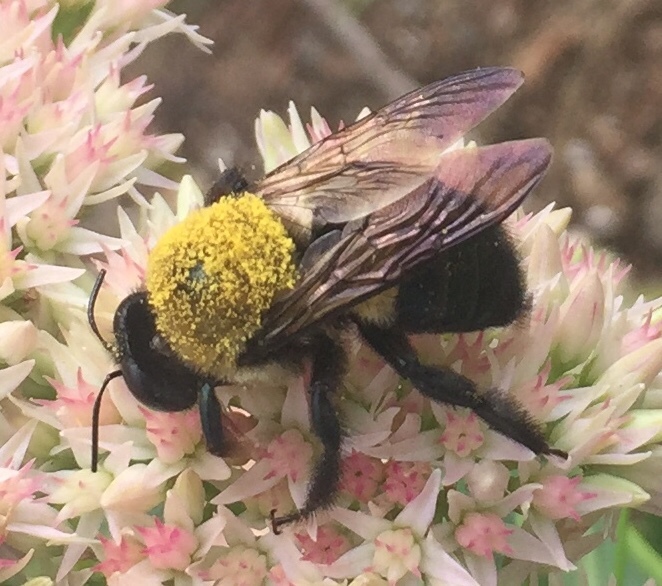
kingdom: Animalia
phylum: Arthropoda
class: Insecta
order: Hymenoptera
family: Apidae
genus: Xylocopa
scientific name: Xylocopa virginica
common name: Carpenter bee
